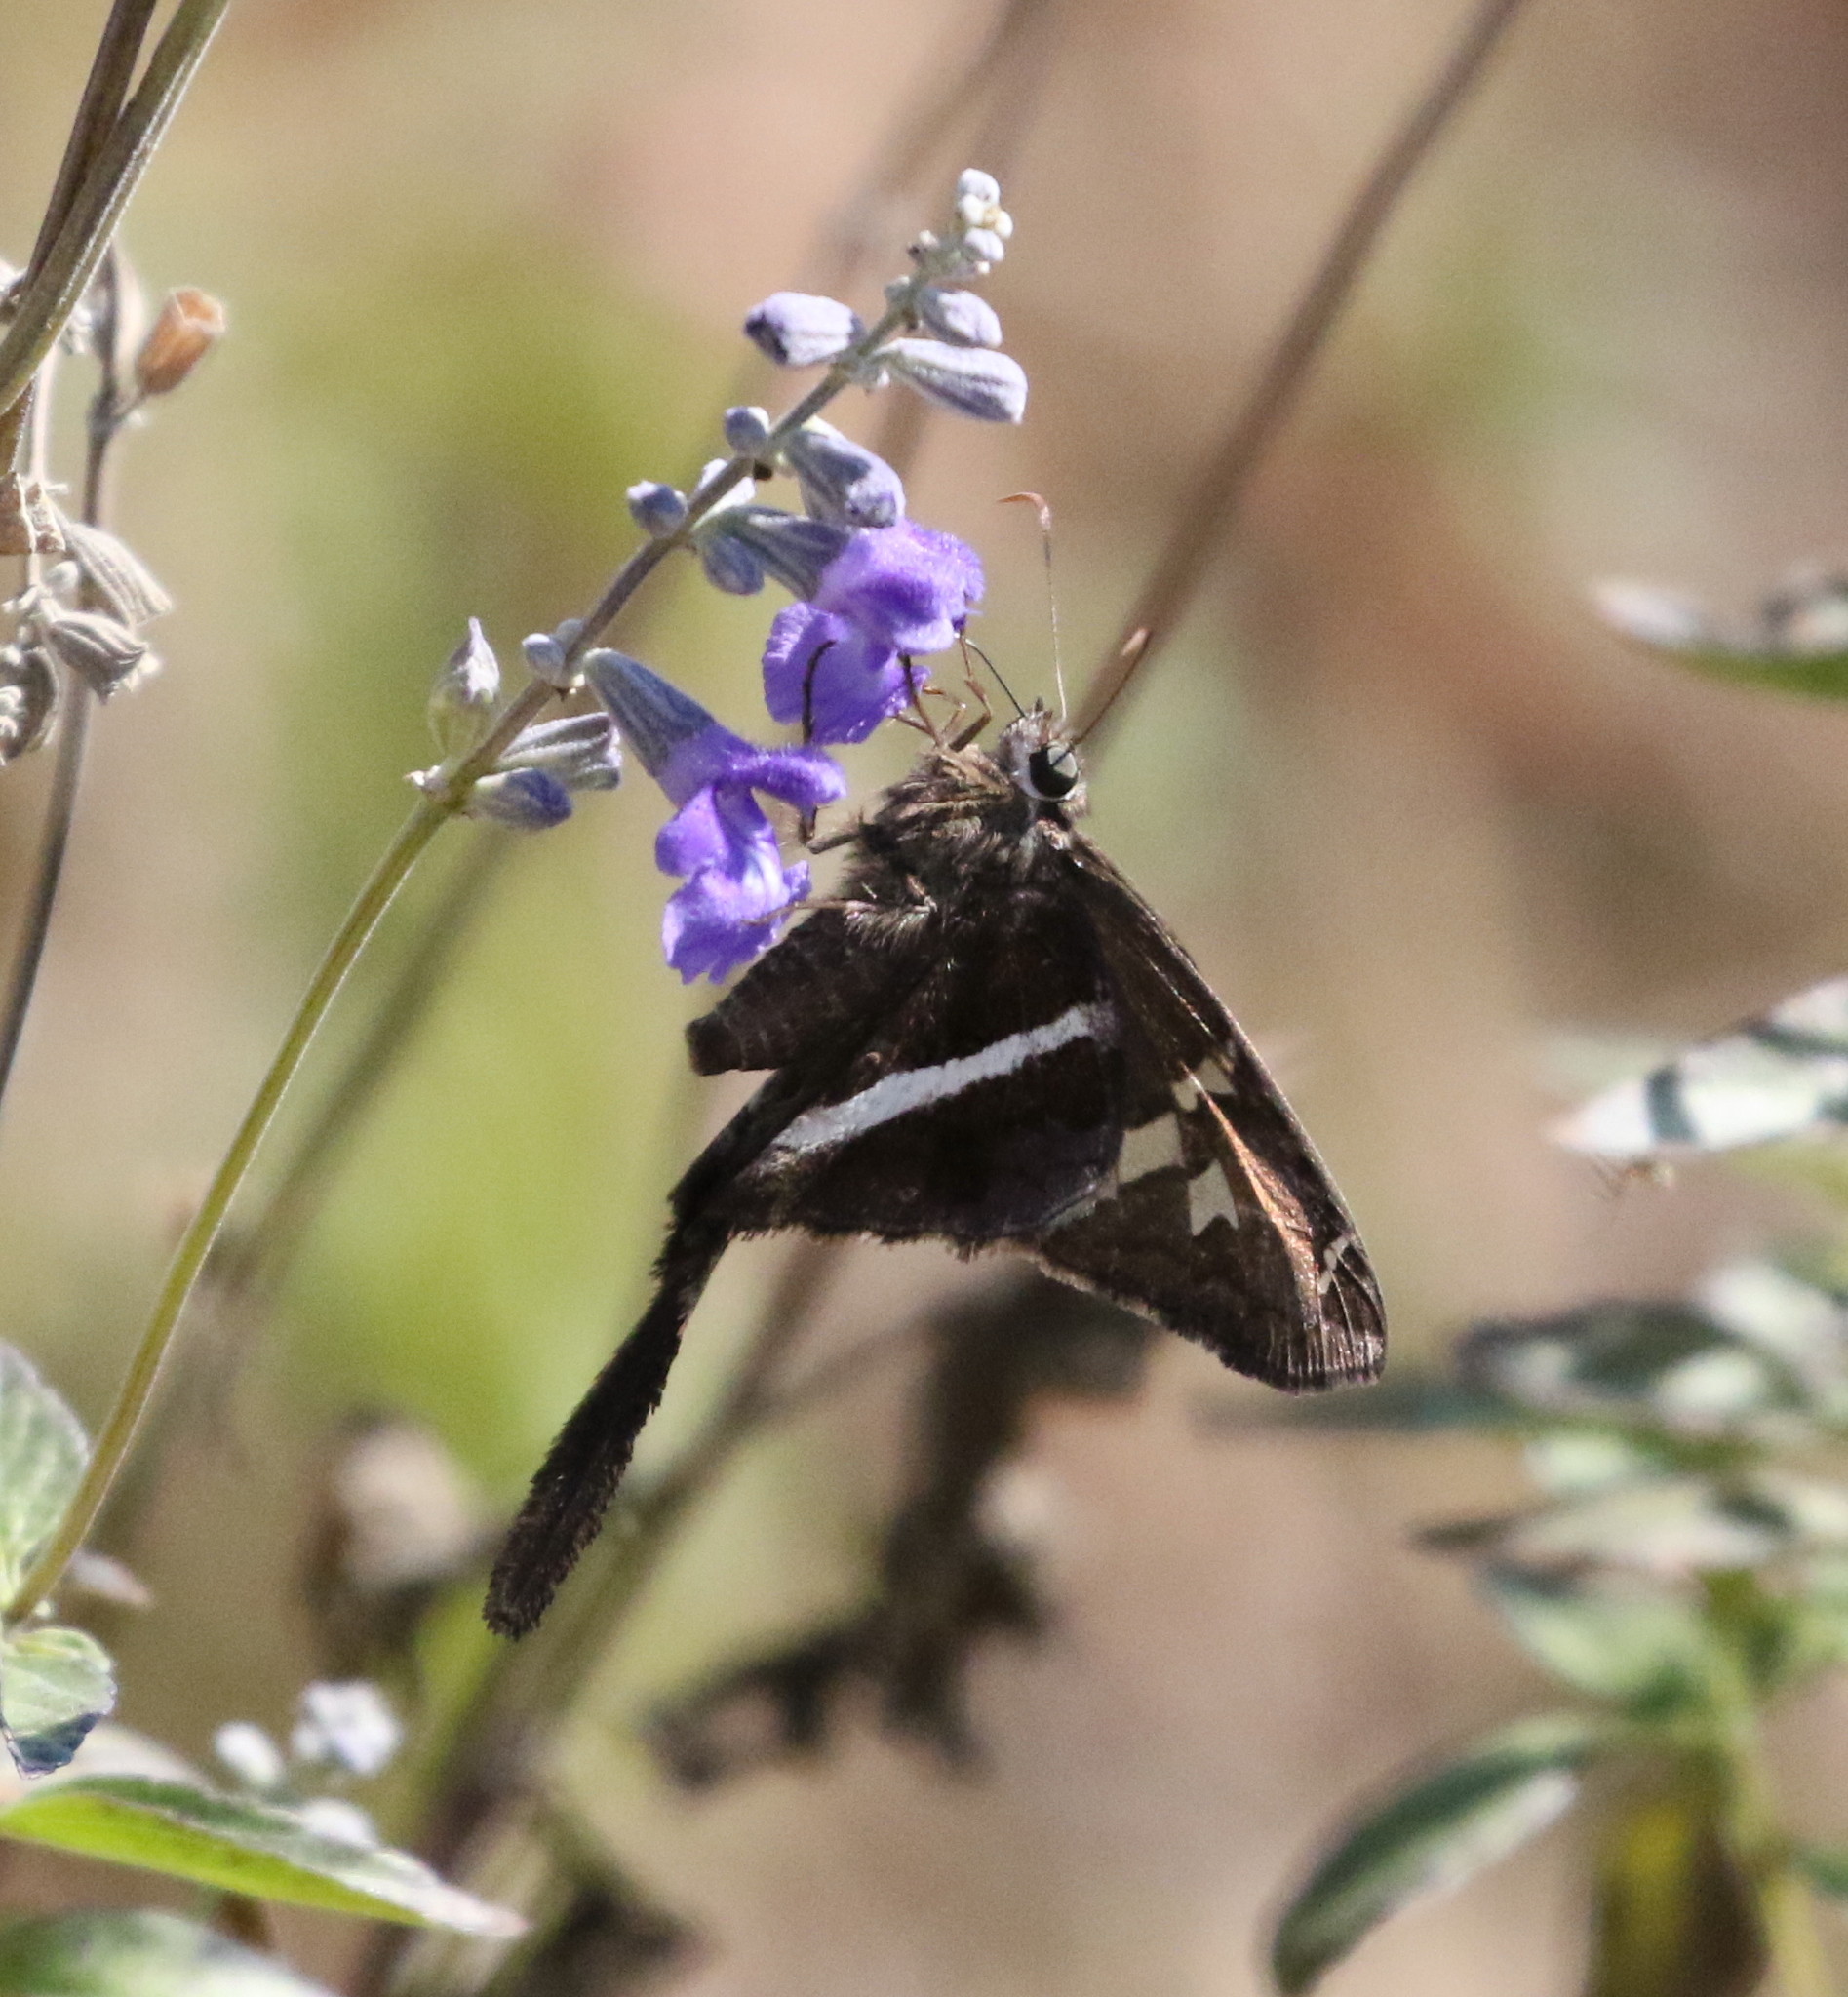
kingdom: Animalia
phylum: Arthropoda
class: Insecta
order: Lepidoptera
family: Hesperiidae
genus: Chioides
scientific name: Chioides catillus
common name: Silverbanded skipper
